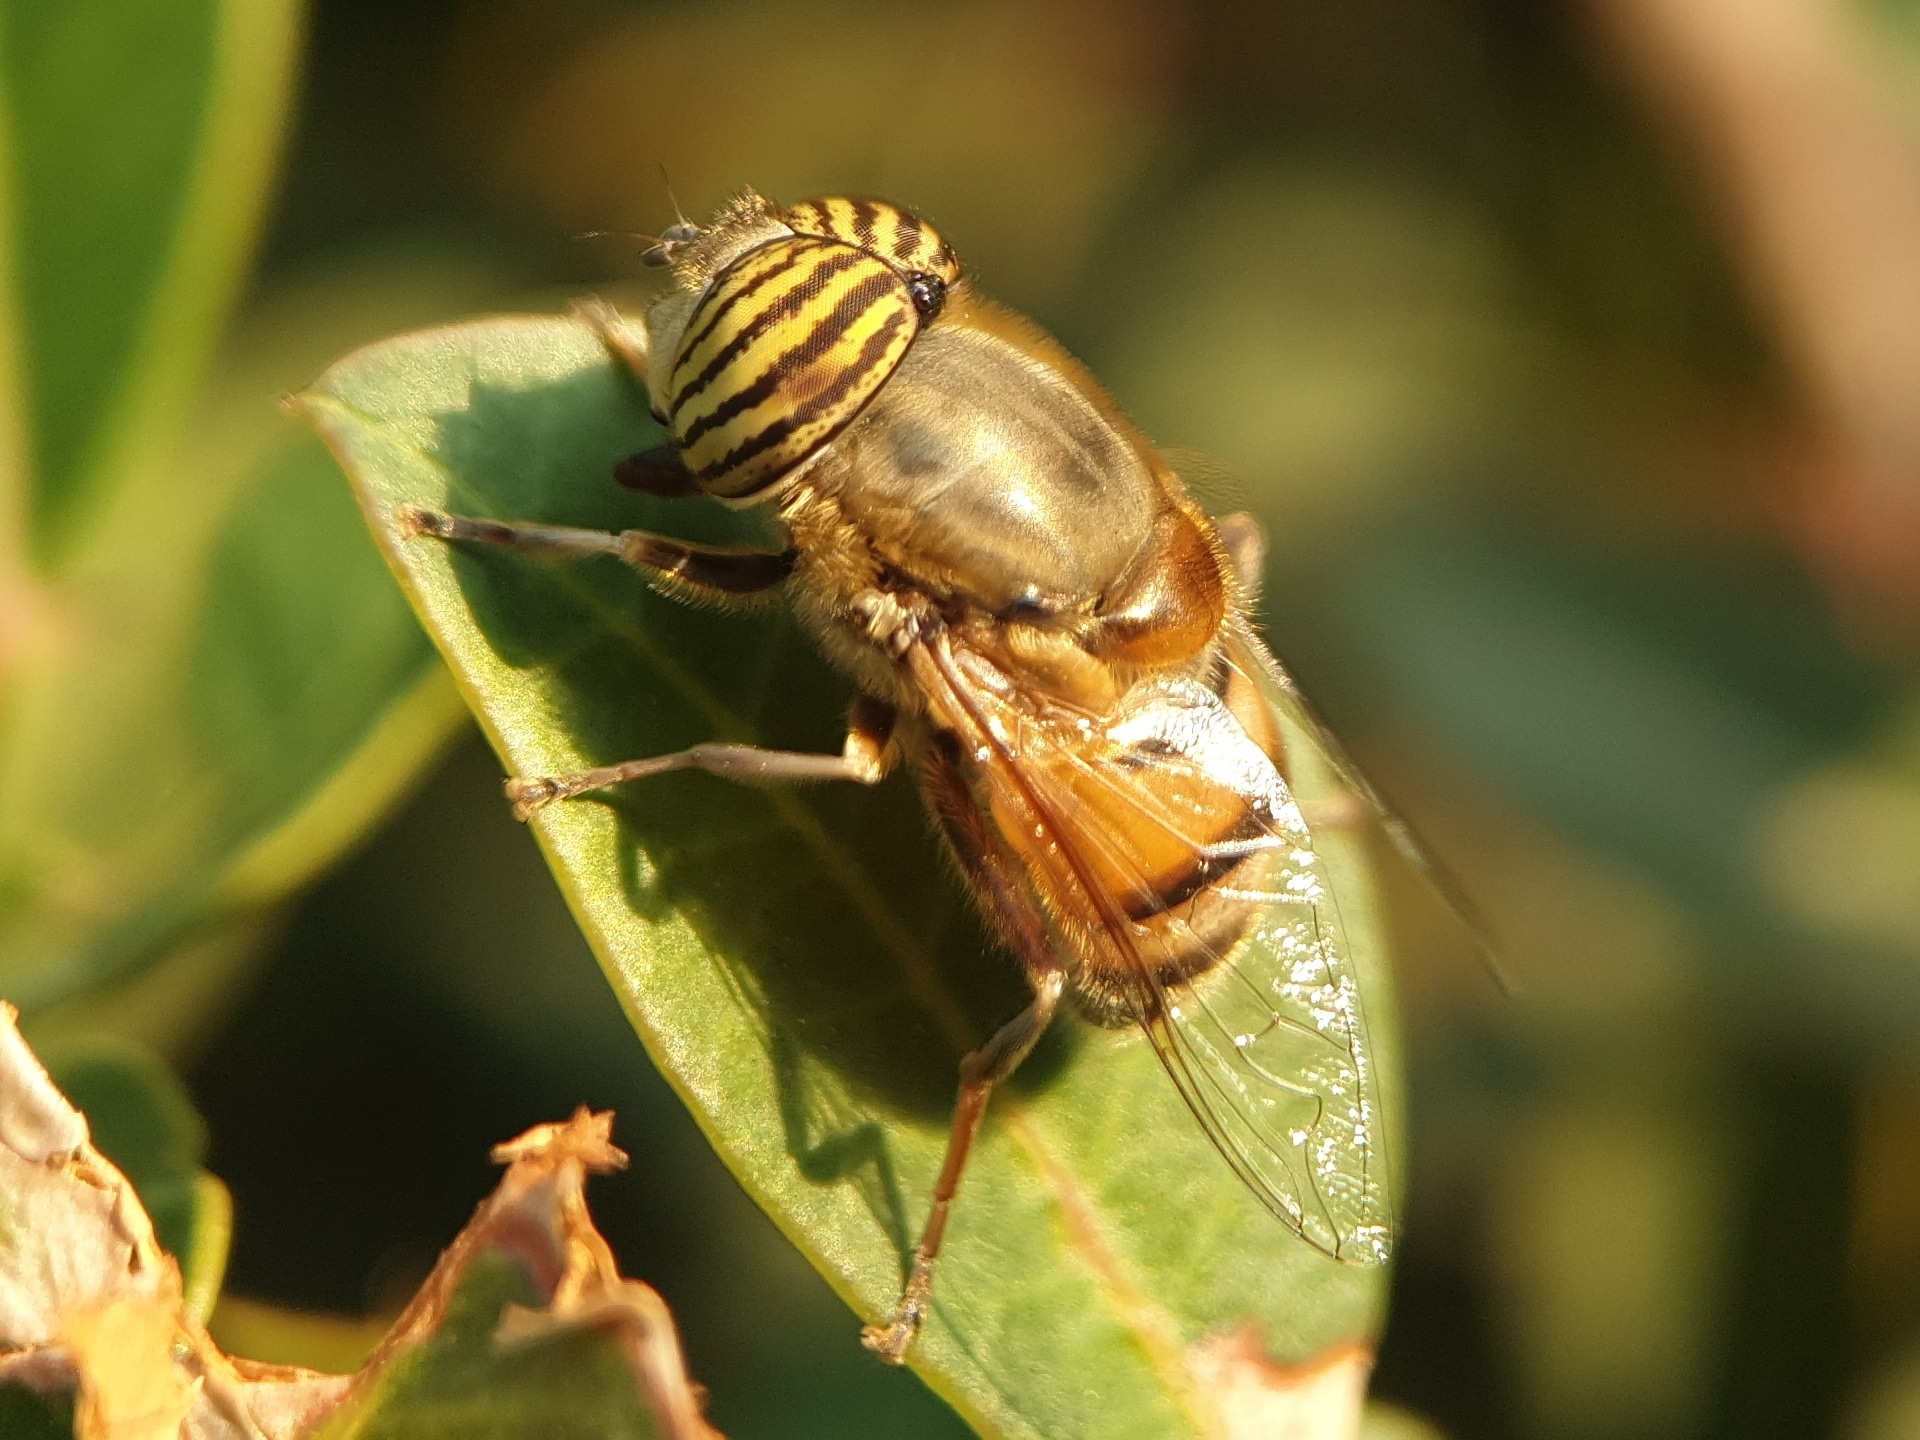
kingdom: Animalia
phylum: Arthropoda
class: Insecta
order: Diptera
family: Syrphidae
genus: Eristalinus
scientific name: Eristalinus taeniops
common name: Syrphid fly
